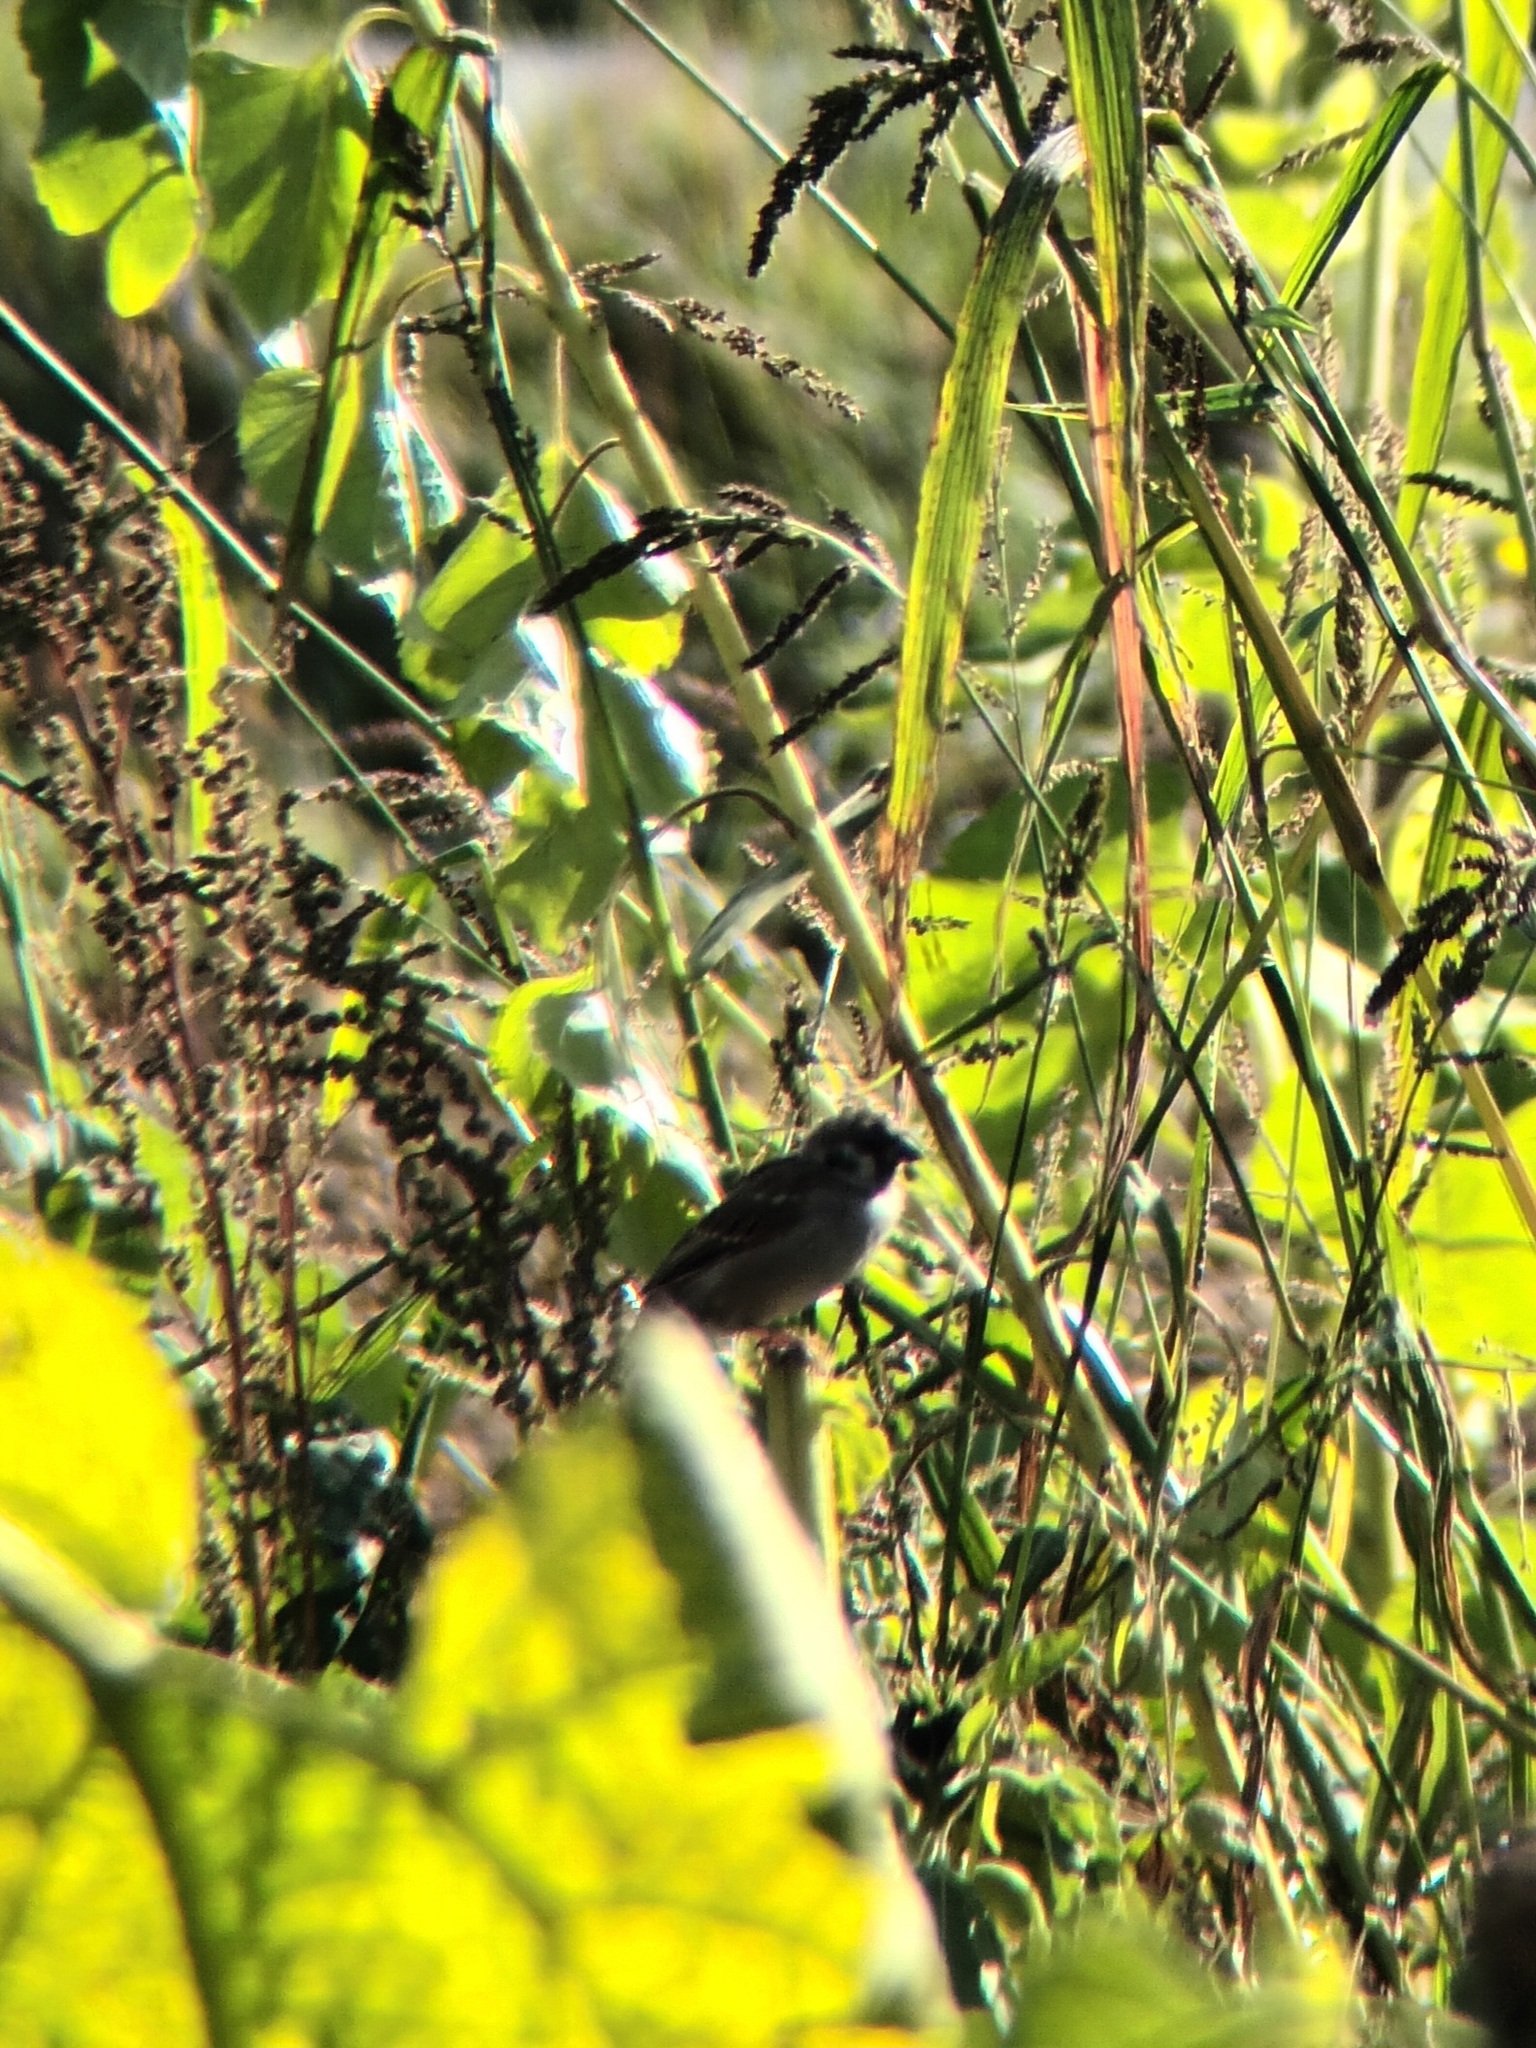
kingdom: Animalia
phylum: Chordata
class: Aves
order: Passeriformes
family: Passeridae
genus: Passer
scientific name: Passer montanus
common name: Eurasian tree sparrow
